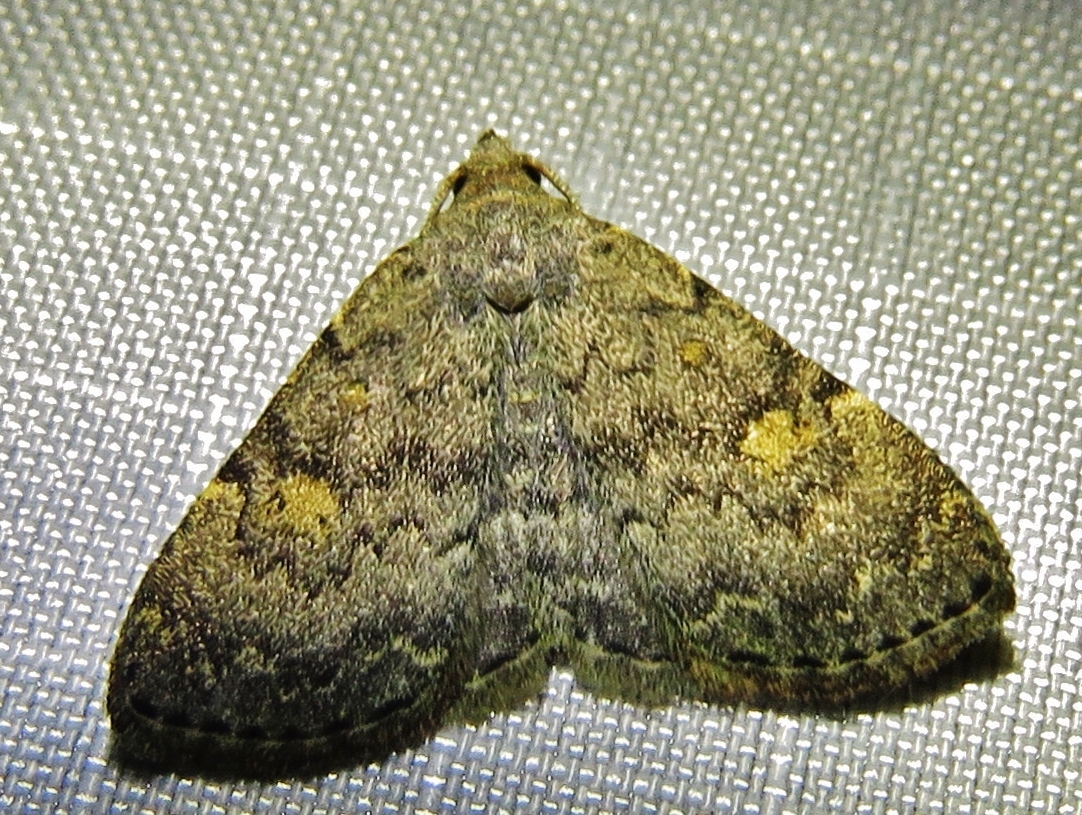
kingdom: Animalia
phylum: Arthropoda
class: Insecta
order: Lepidoptera
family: Erebidae
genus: Idia
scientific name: Idia aemula
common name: Common idia moth
